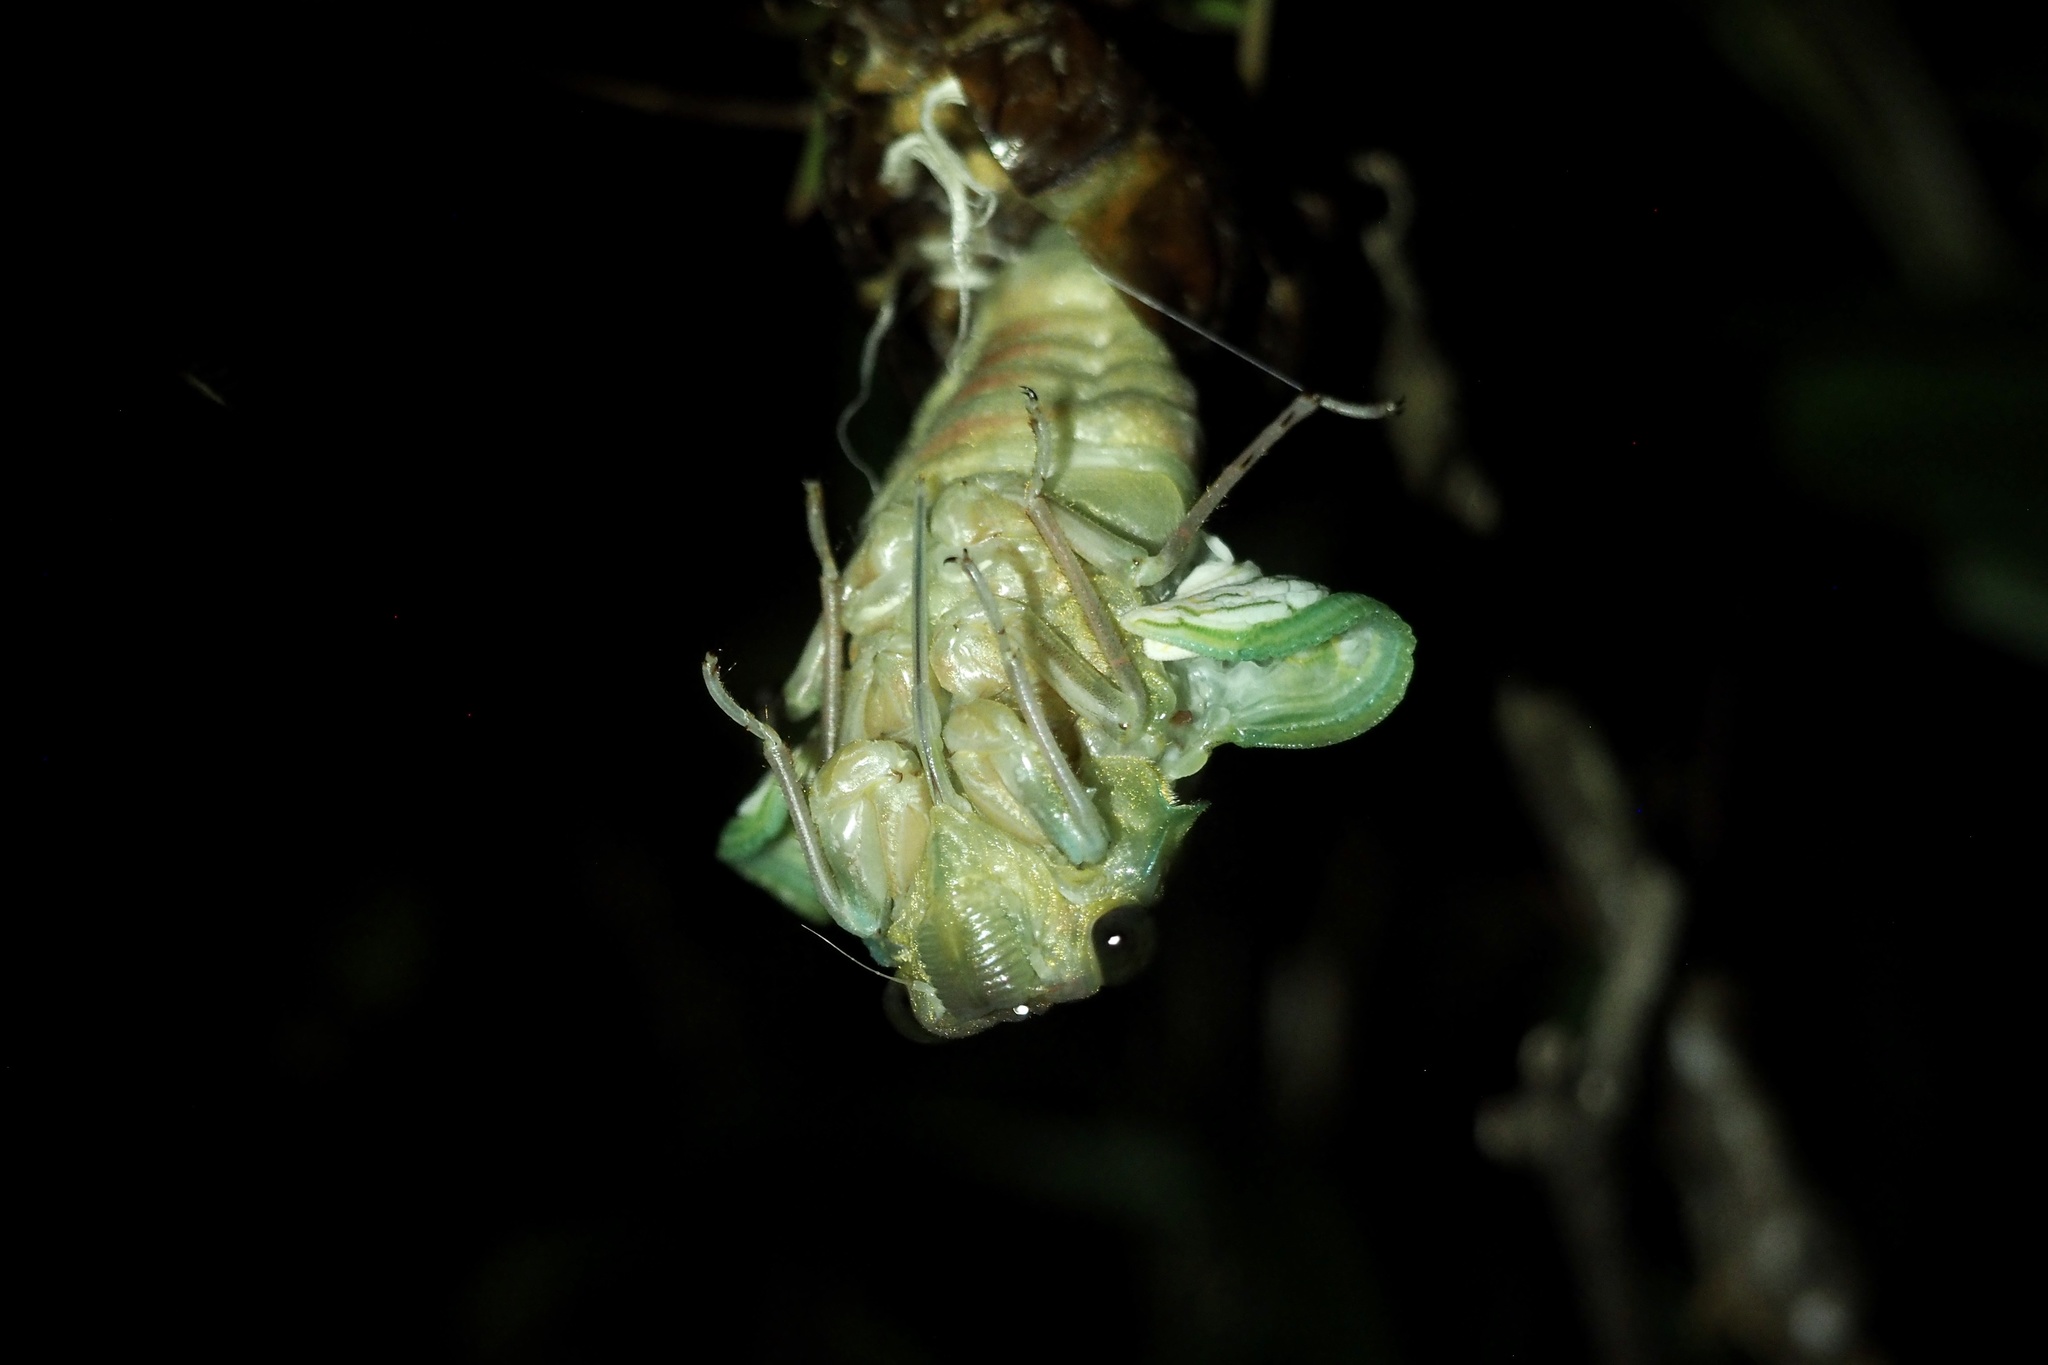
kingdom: Animalia
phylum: Arthropoda
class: Insecta
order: Hemiptera
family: Cicadidae
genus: Graptopsaltria
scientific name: Graptopsaltria nigrofuscata
